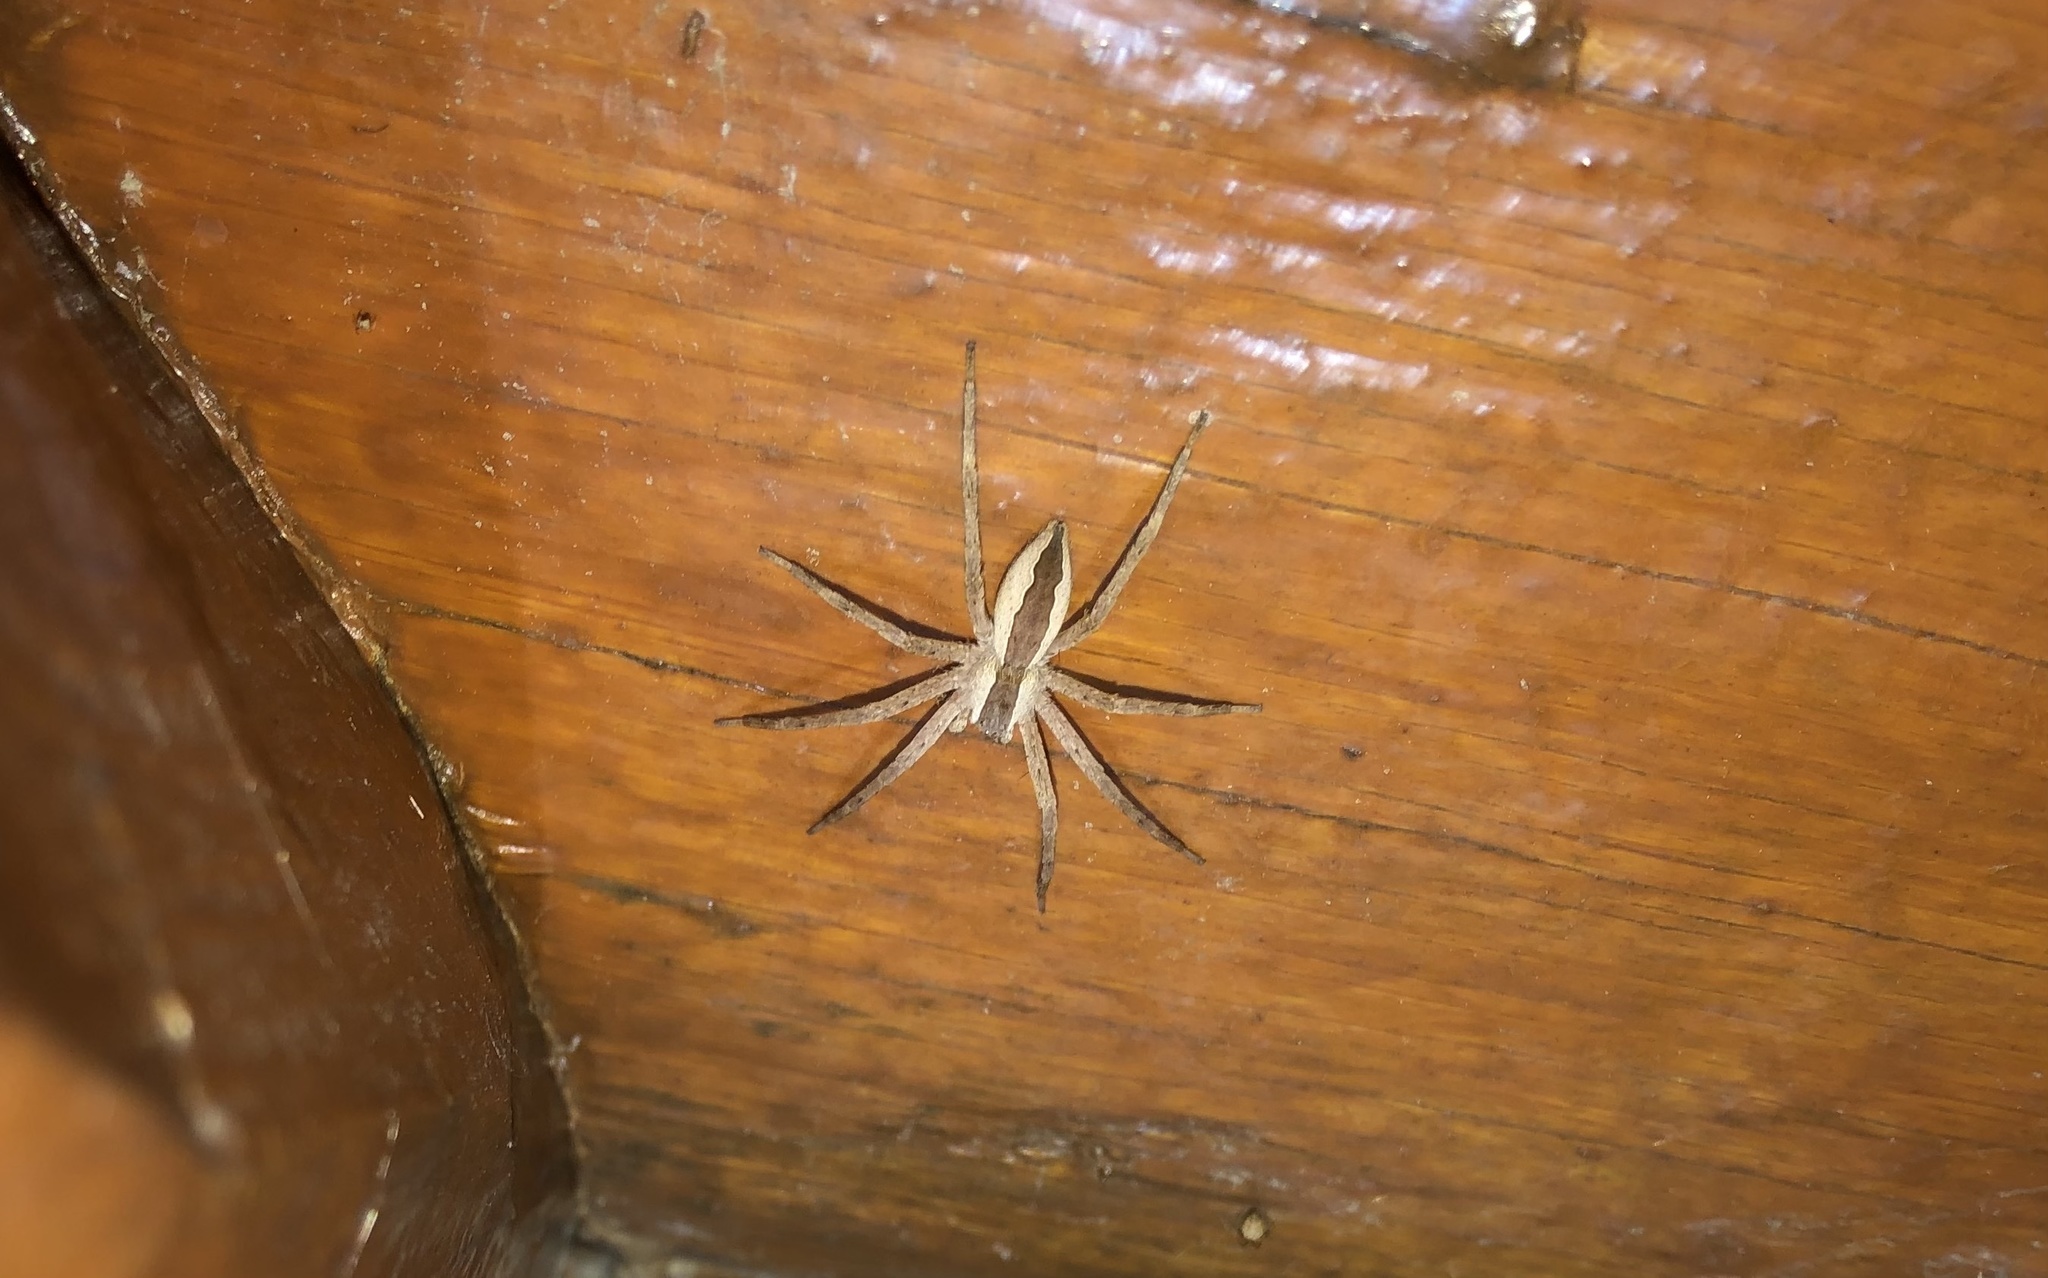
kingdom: Animalia
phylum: Arthropoda
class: Arachnida
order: Araneae
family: Pisauridae
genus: Pisaurina
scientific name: Pisaurina mira
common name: American nursery web spider
